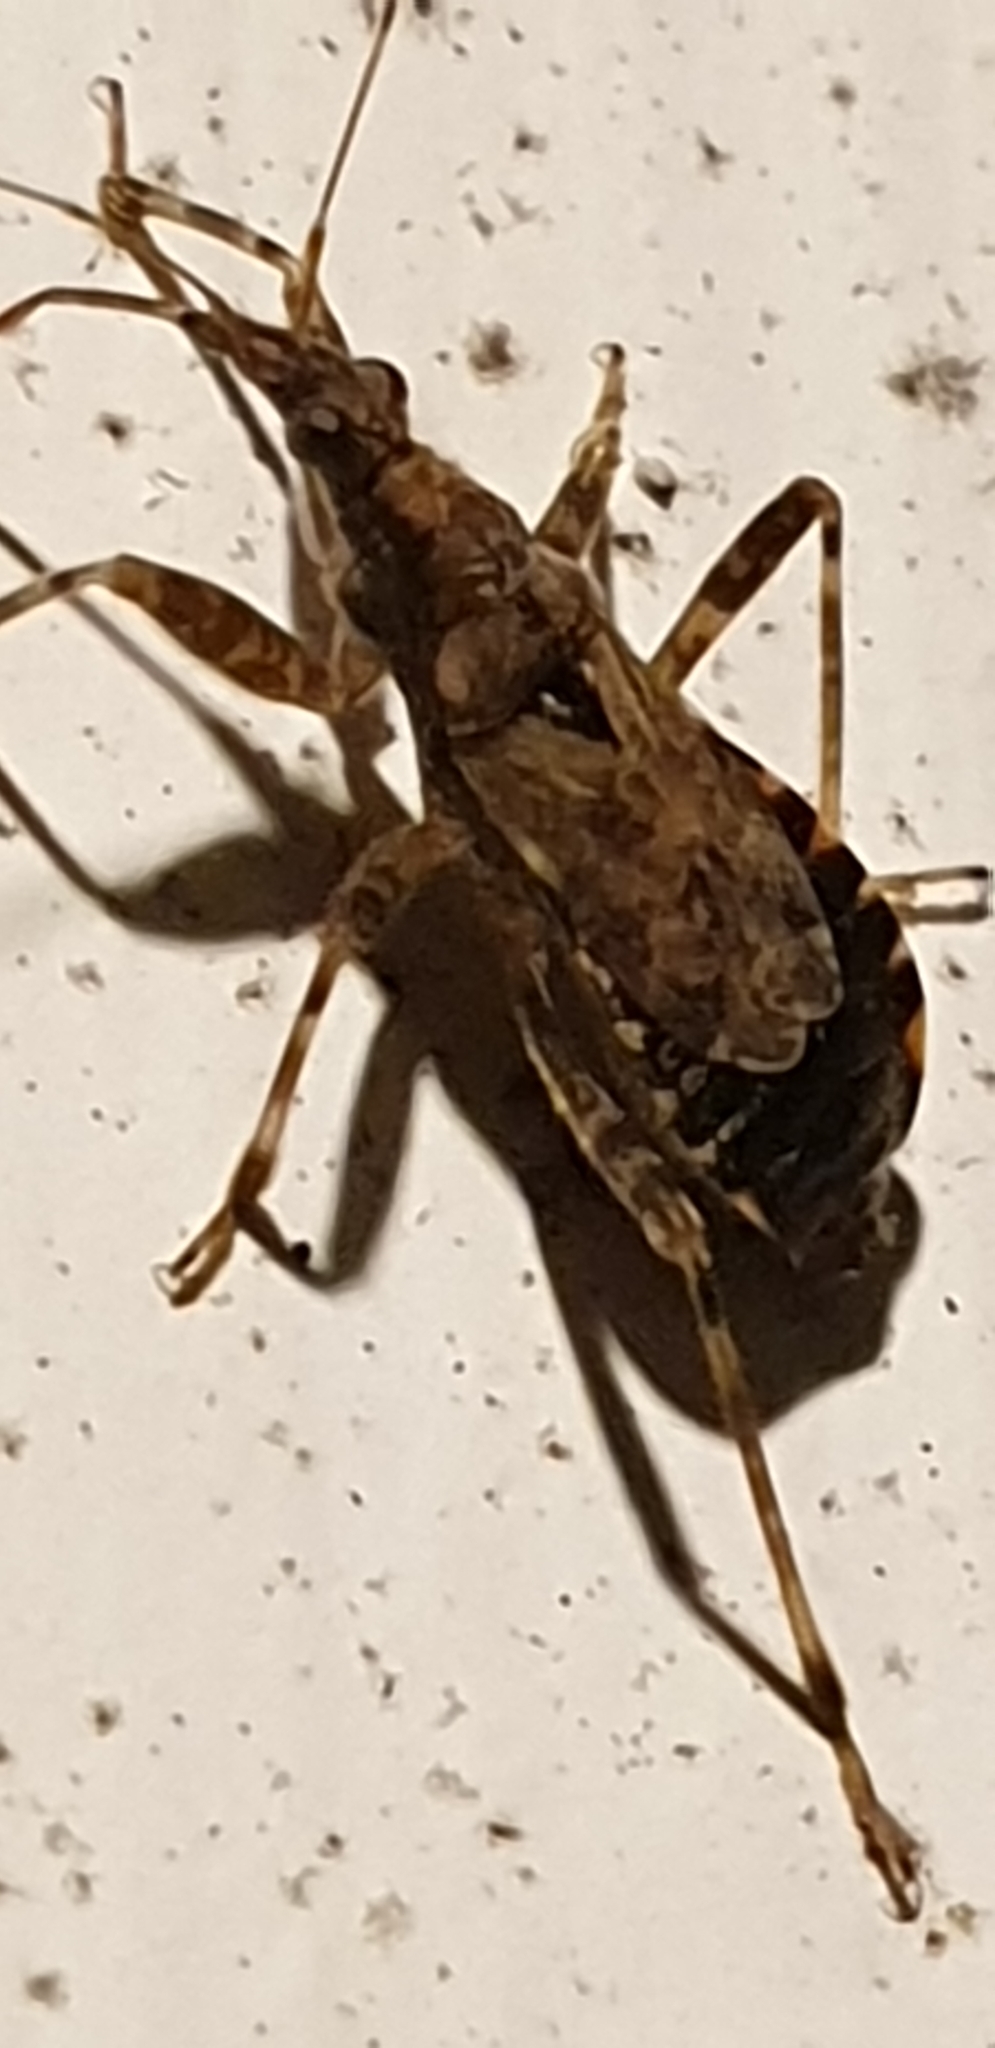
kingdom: Animalia
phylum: Arthropoda
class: Insecta
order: Hemiptera
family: Nabidae
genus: Himacerus
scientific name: Himacerus mirmicoides
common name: Ant damsel bug
